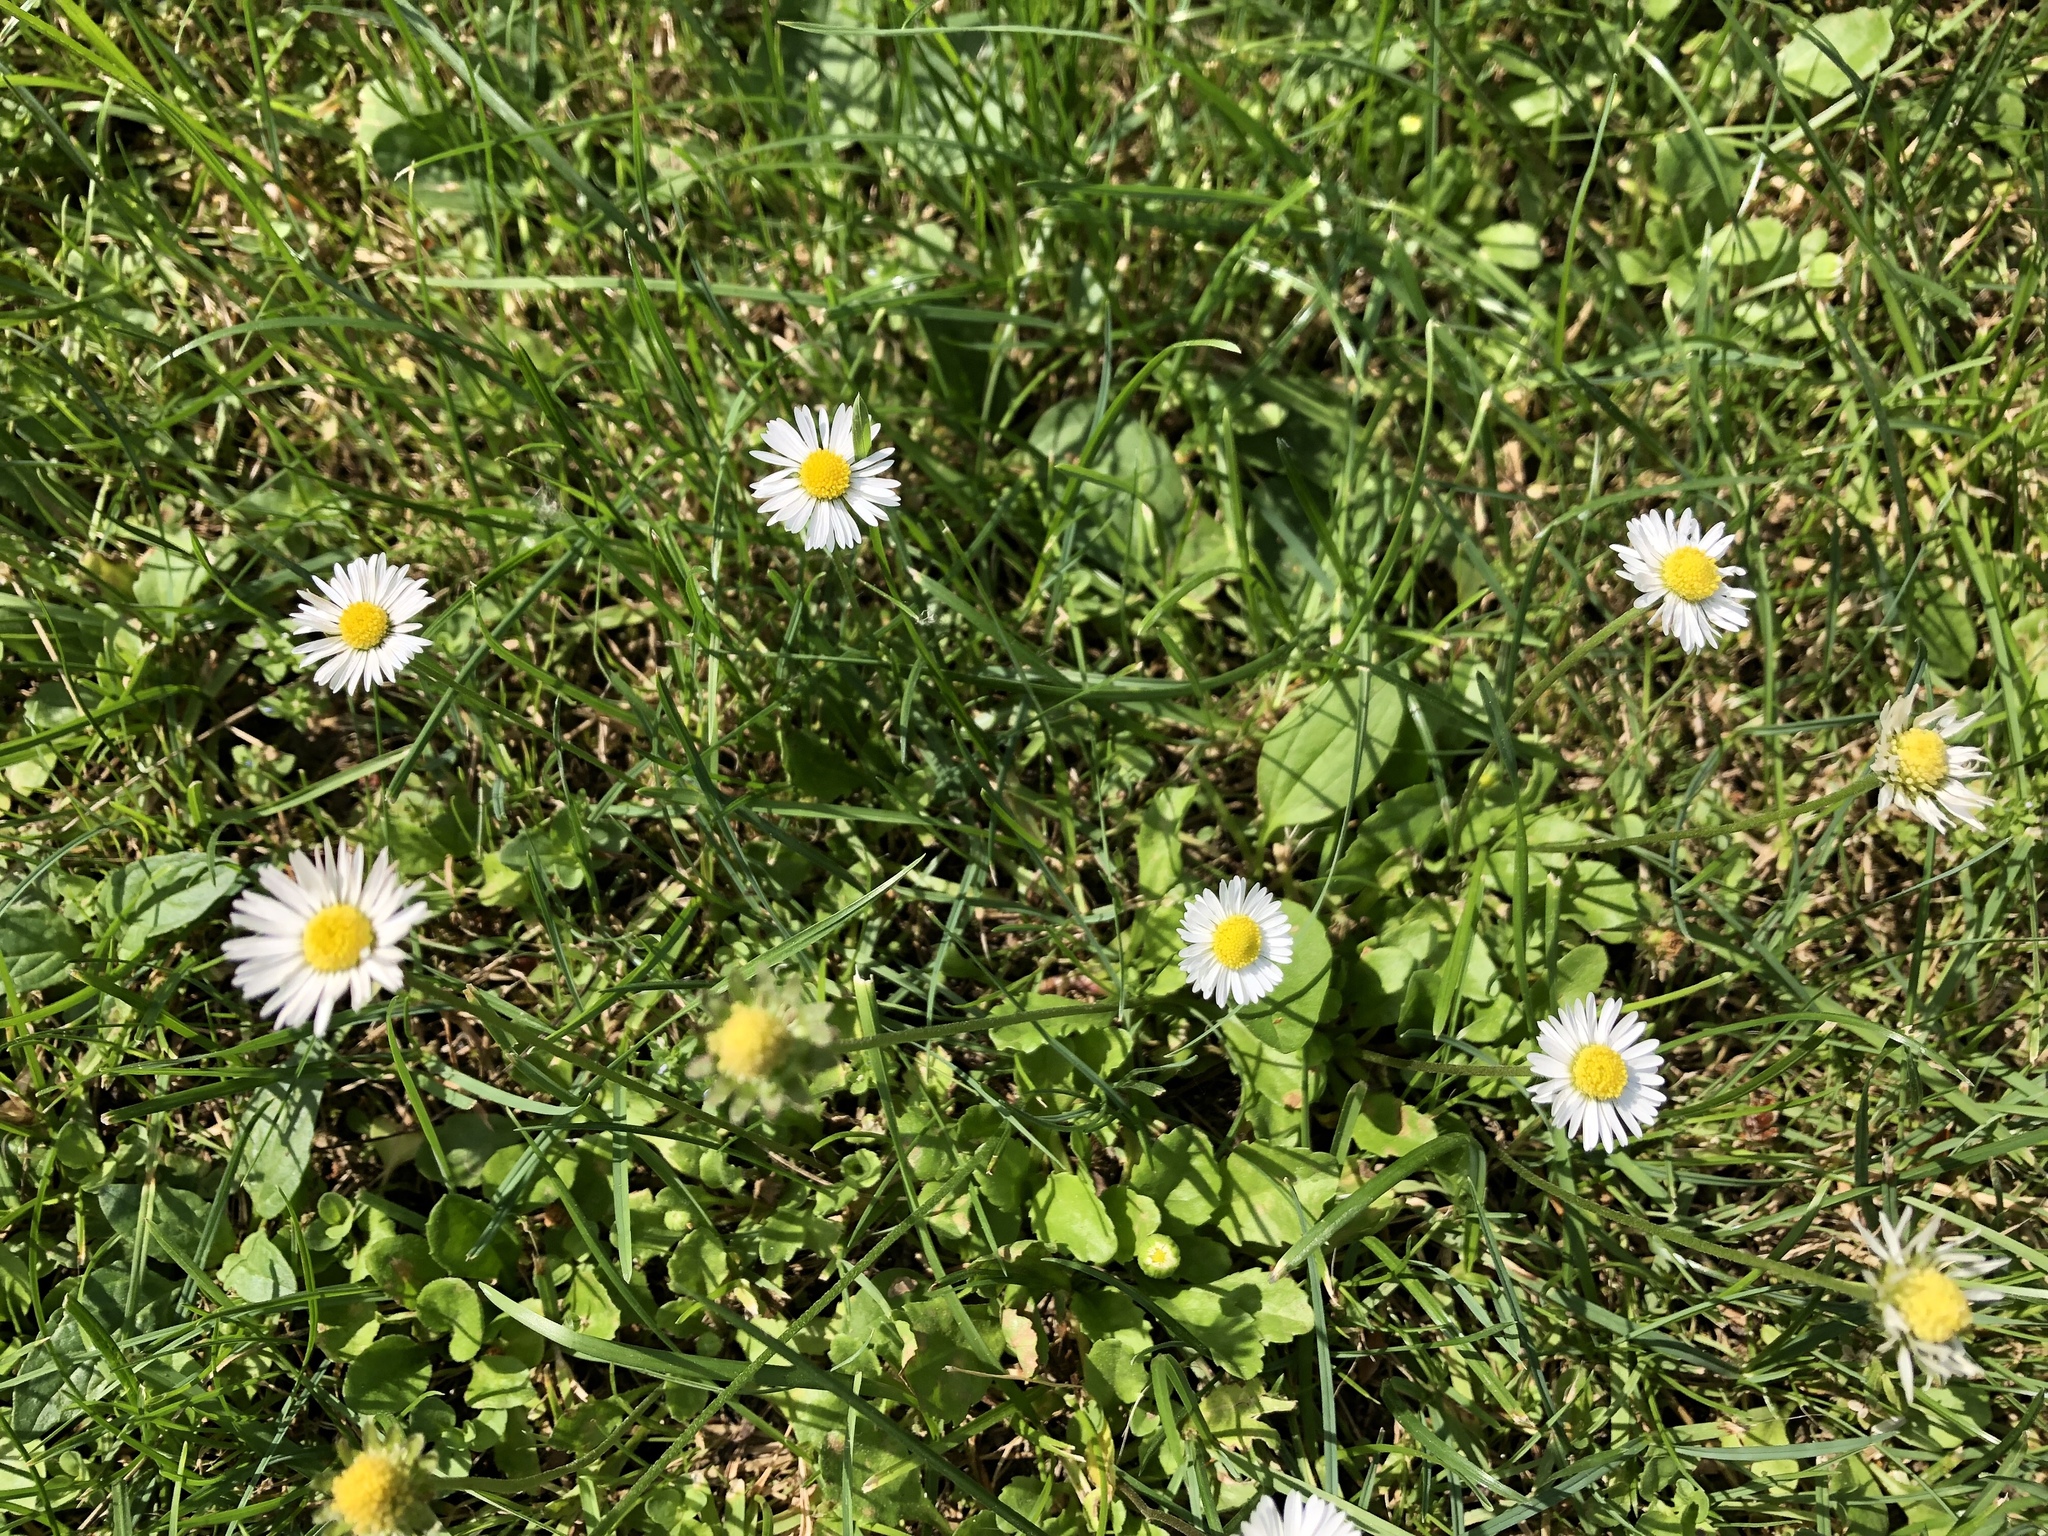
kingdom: Plantae
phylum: Tracheophyta
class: Magnoliopsida
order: Asterales
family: Asteraceae
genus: Bellis
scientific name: Bellis perennis
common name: Lawndaisy
